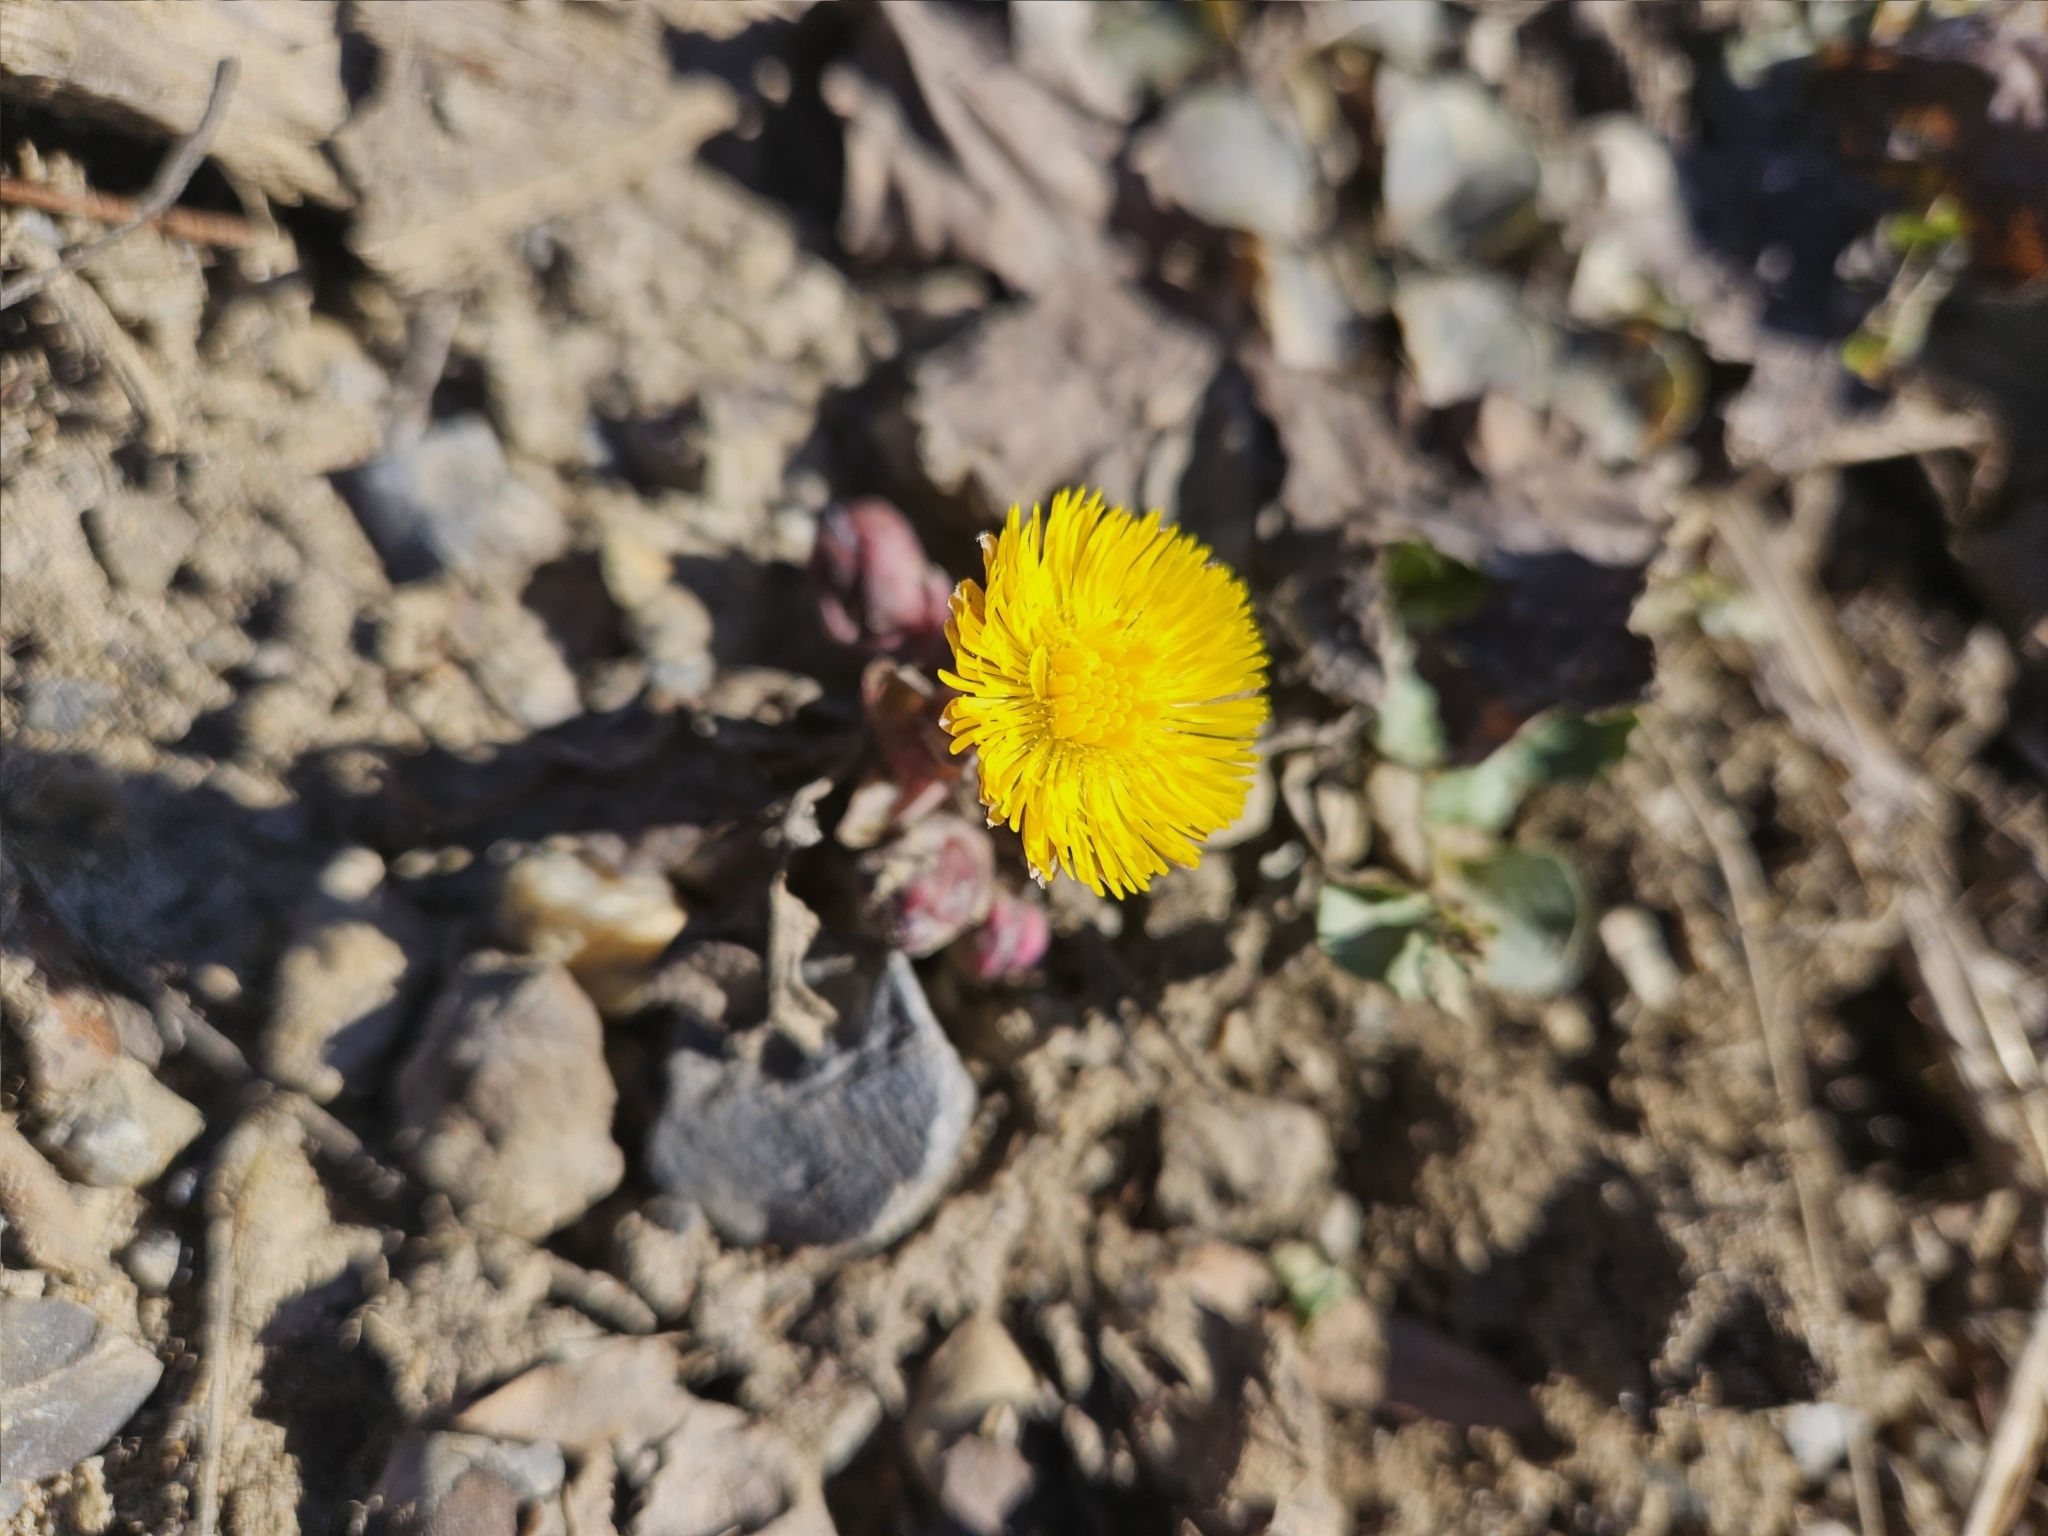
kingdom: Plantae
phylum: Tracheophyta
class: Magnoliopsida
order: Asterales
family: Asteraceae
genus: Tussilago
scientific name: Tussilago farfara
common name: Coltsfoot
